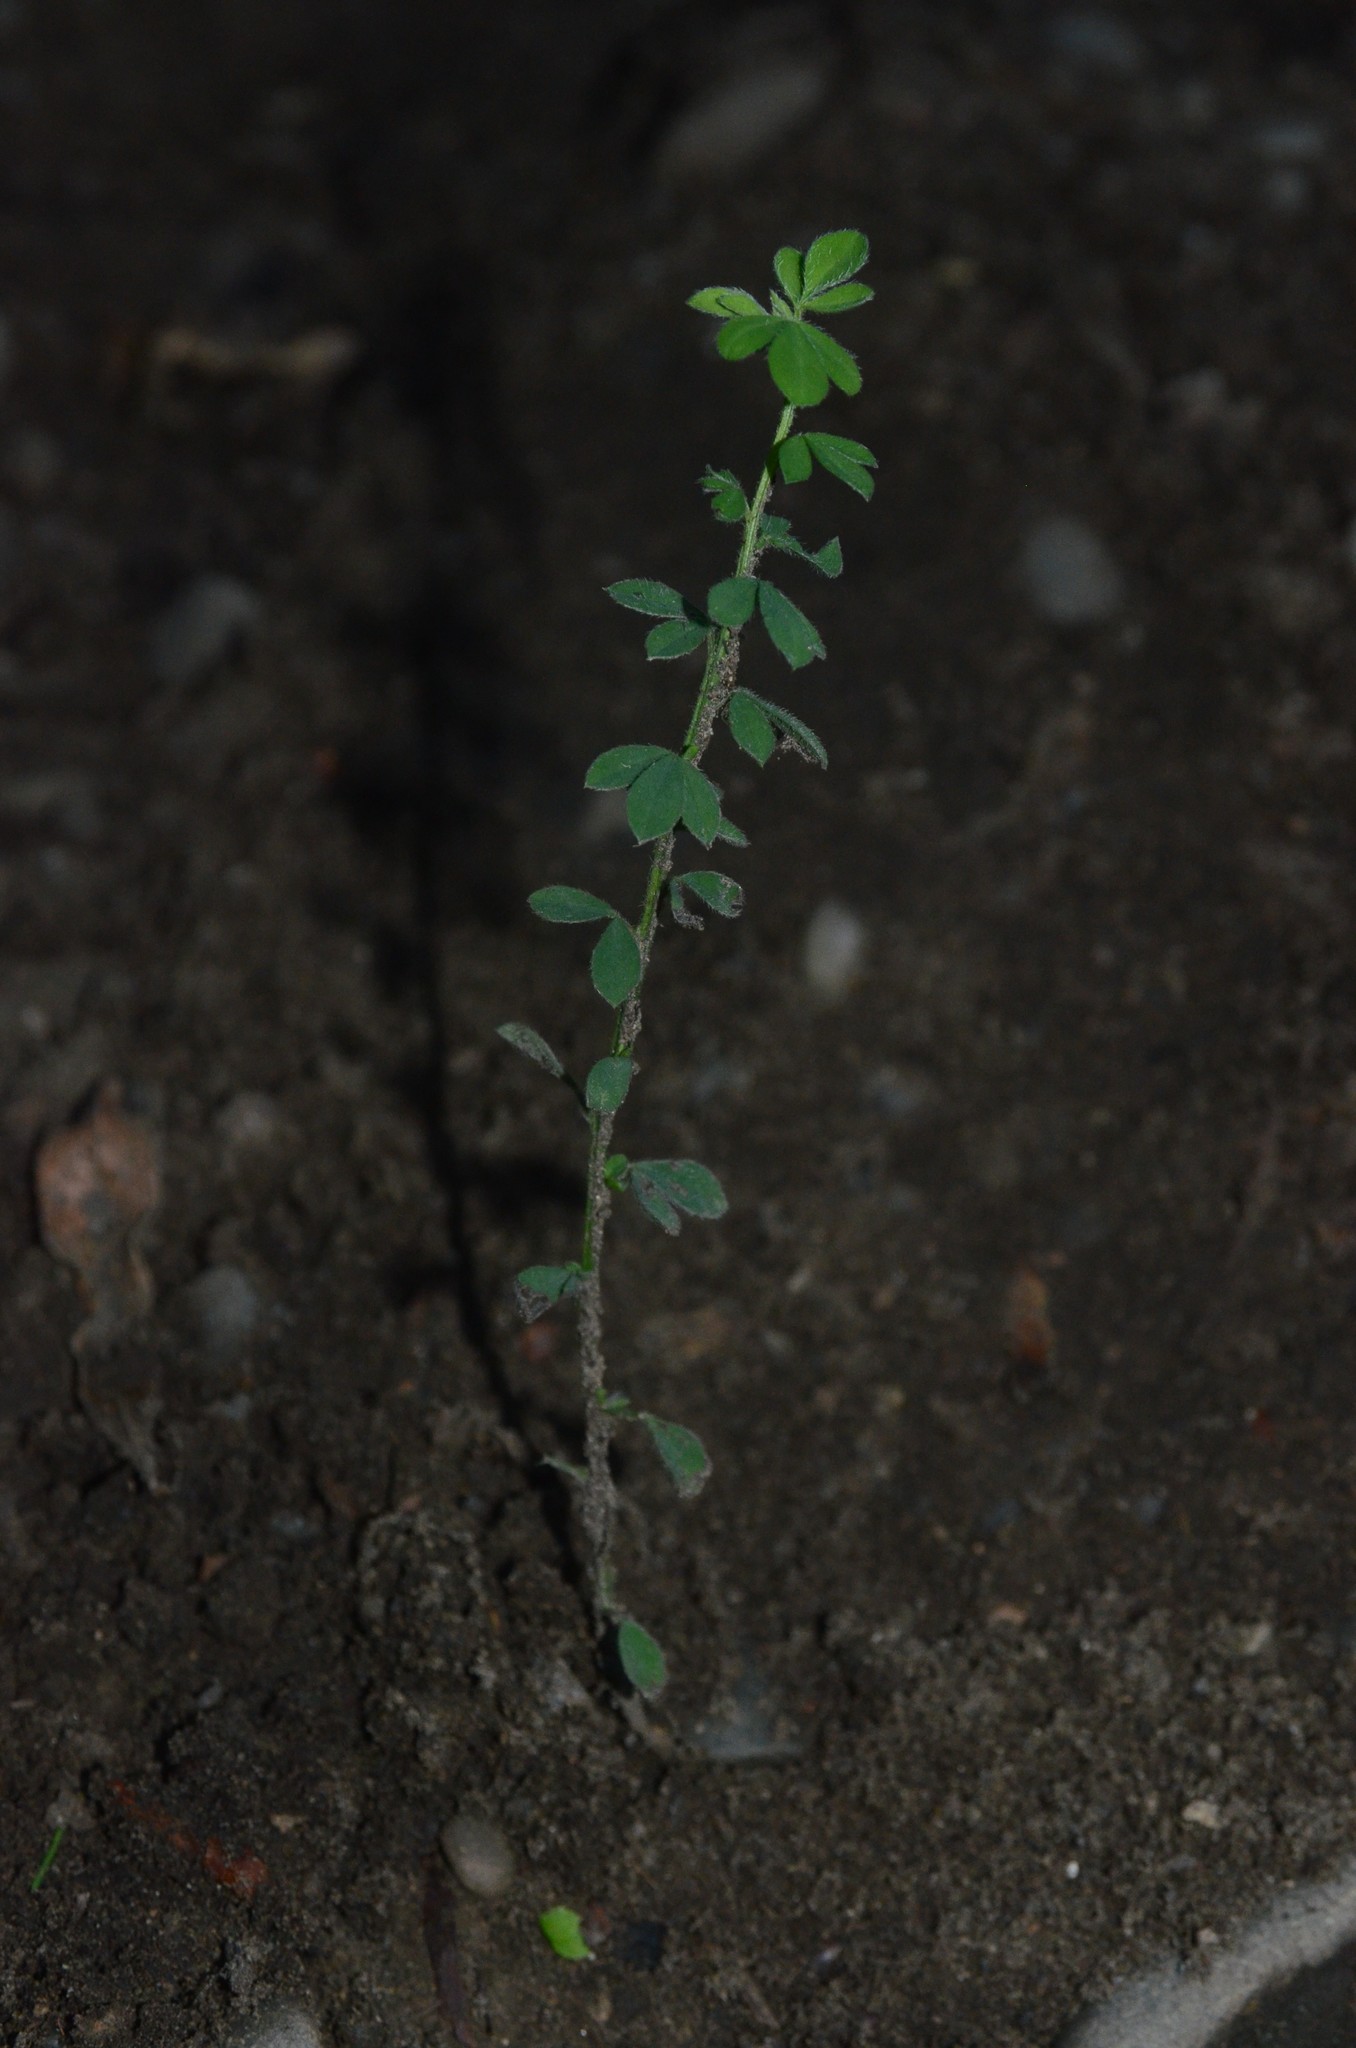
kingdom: Plantae
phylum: Tracheophyta
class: Magnoliopsida
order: Fabales
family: Fabaceae
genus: Cytisus
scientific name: Cytisus scoparius
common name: Scotch broom
